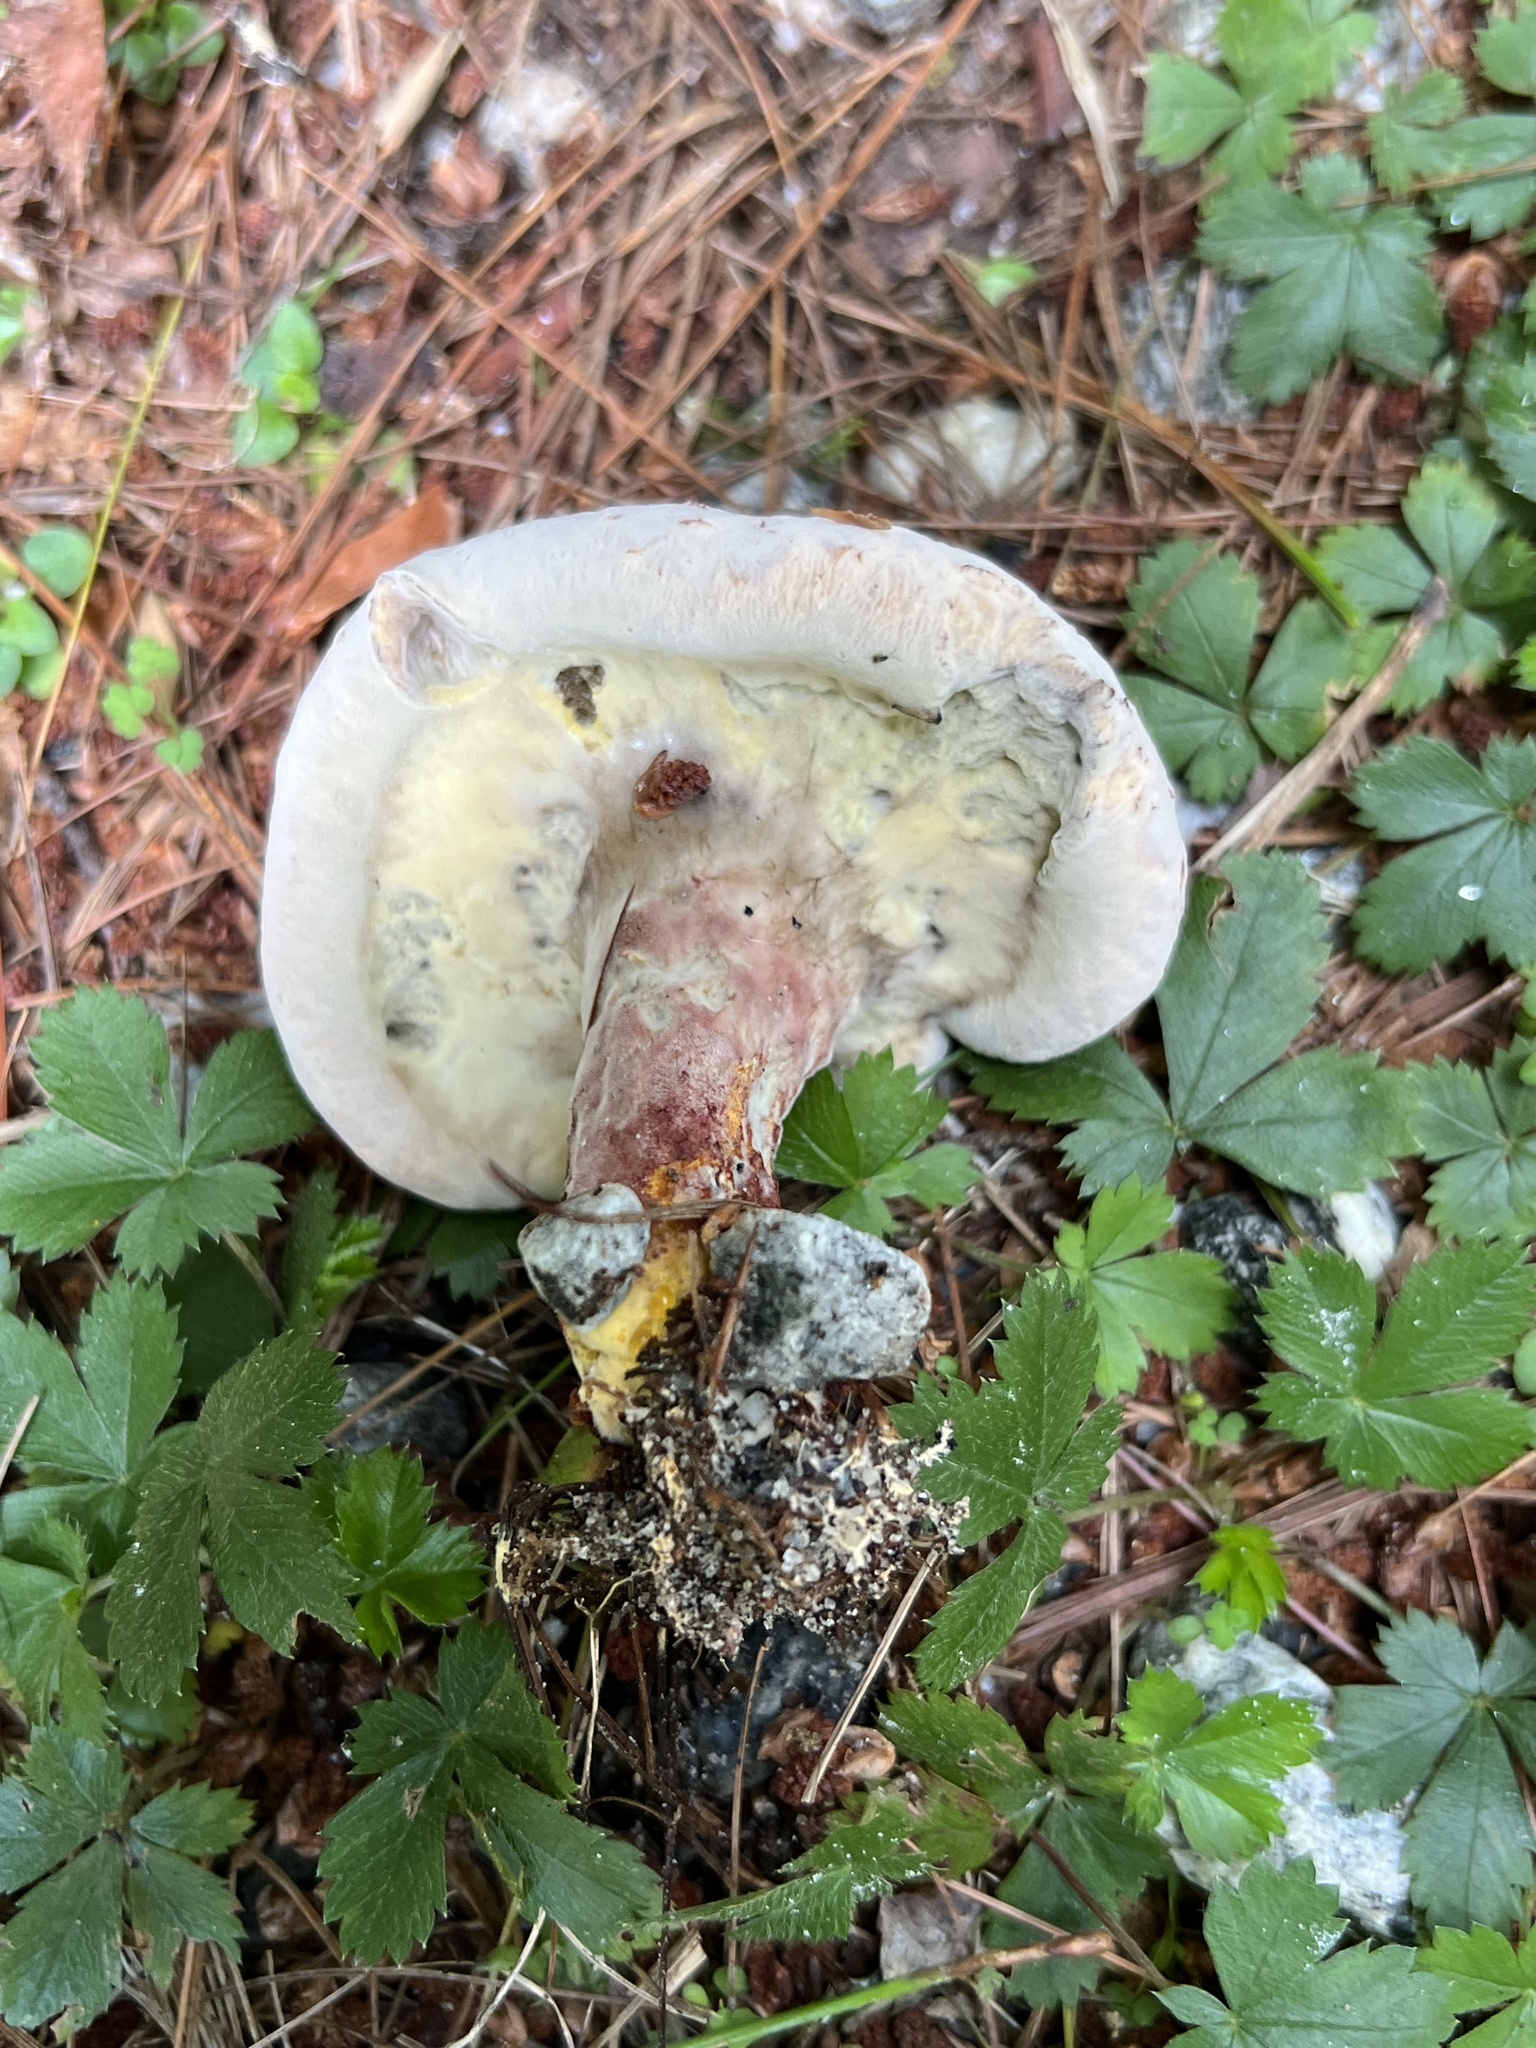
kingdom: Fungi
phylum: Ascomycota
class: Sordariomycetes
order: Hypocreales
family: Hypocreaceae
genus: Hypomyces
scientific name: Hypomyces completus
